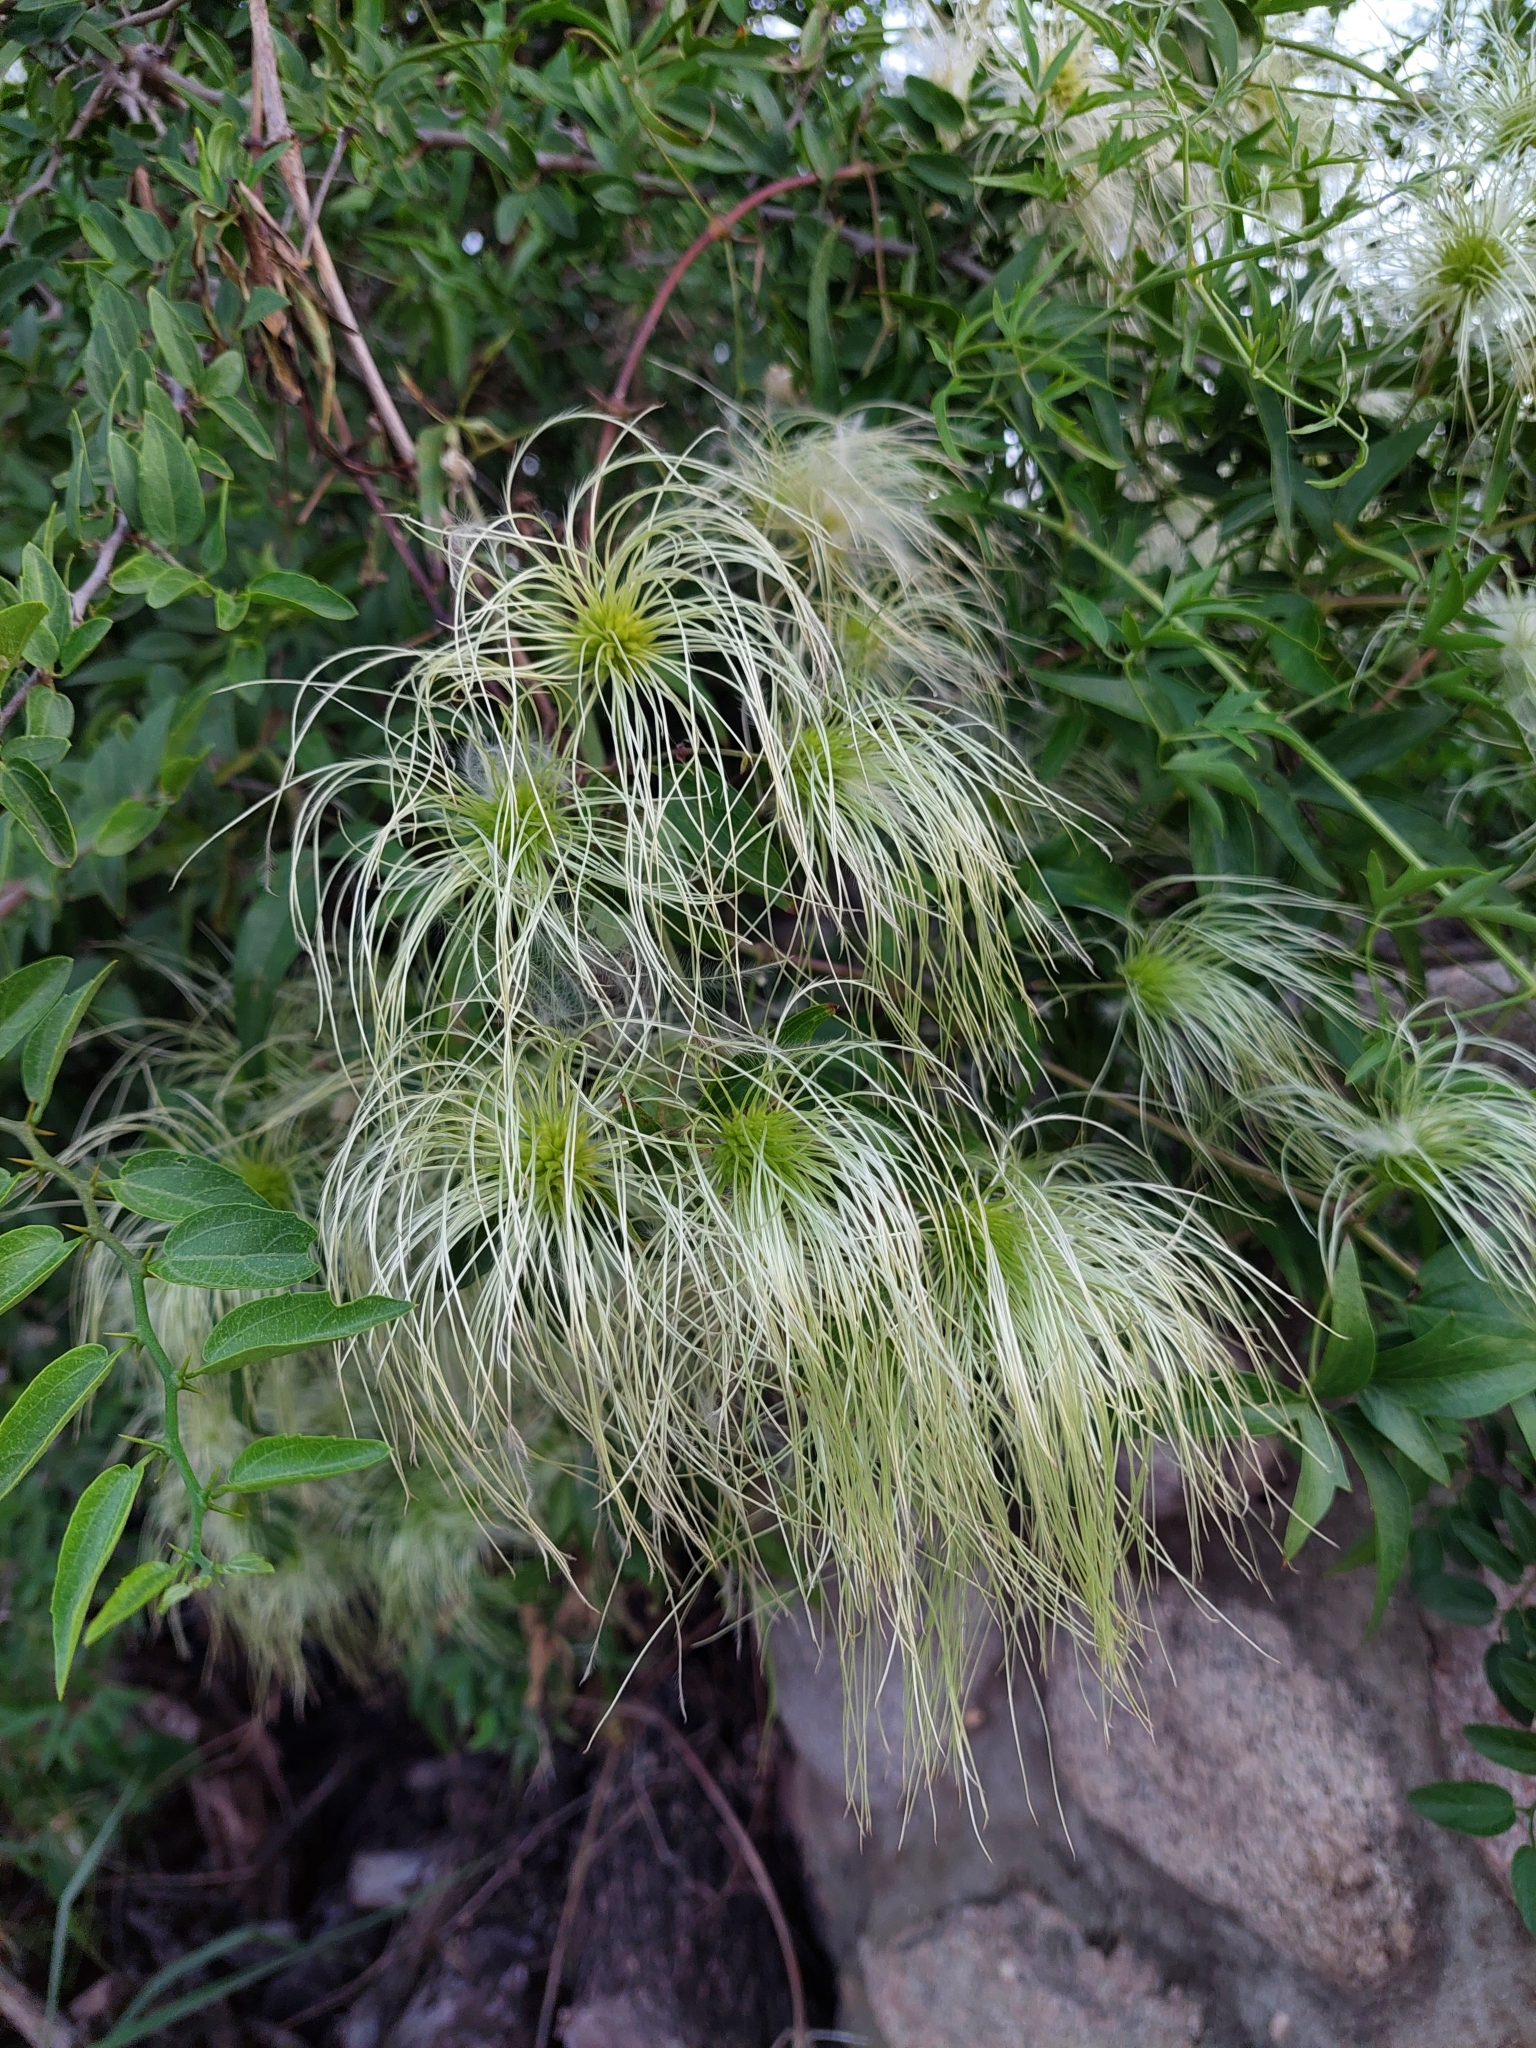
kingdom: Plantae
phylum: Tracheophyta
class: Magnoliopsida
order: Ranunculales
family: Ranunculaceae
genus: Clematis
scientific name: Clematis montevidensis
